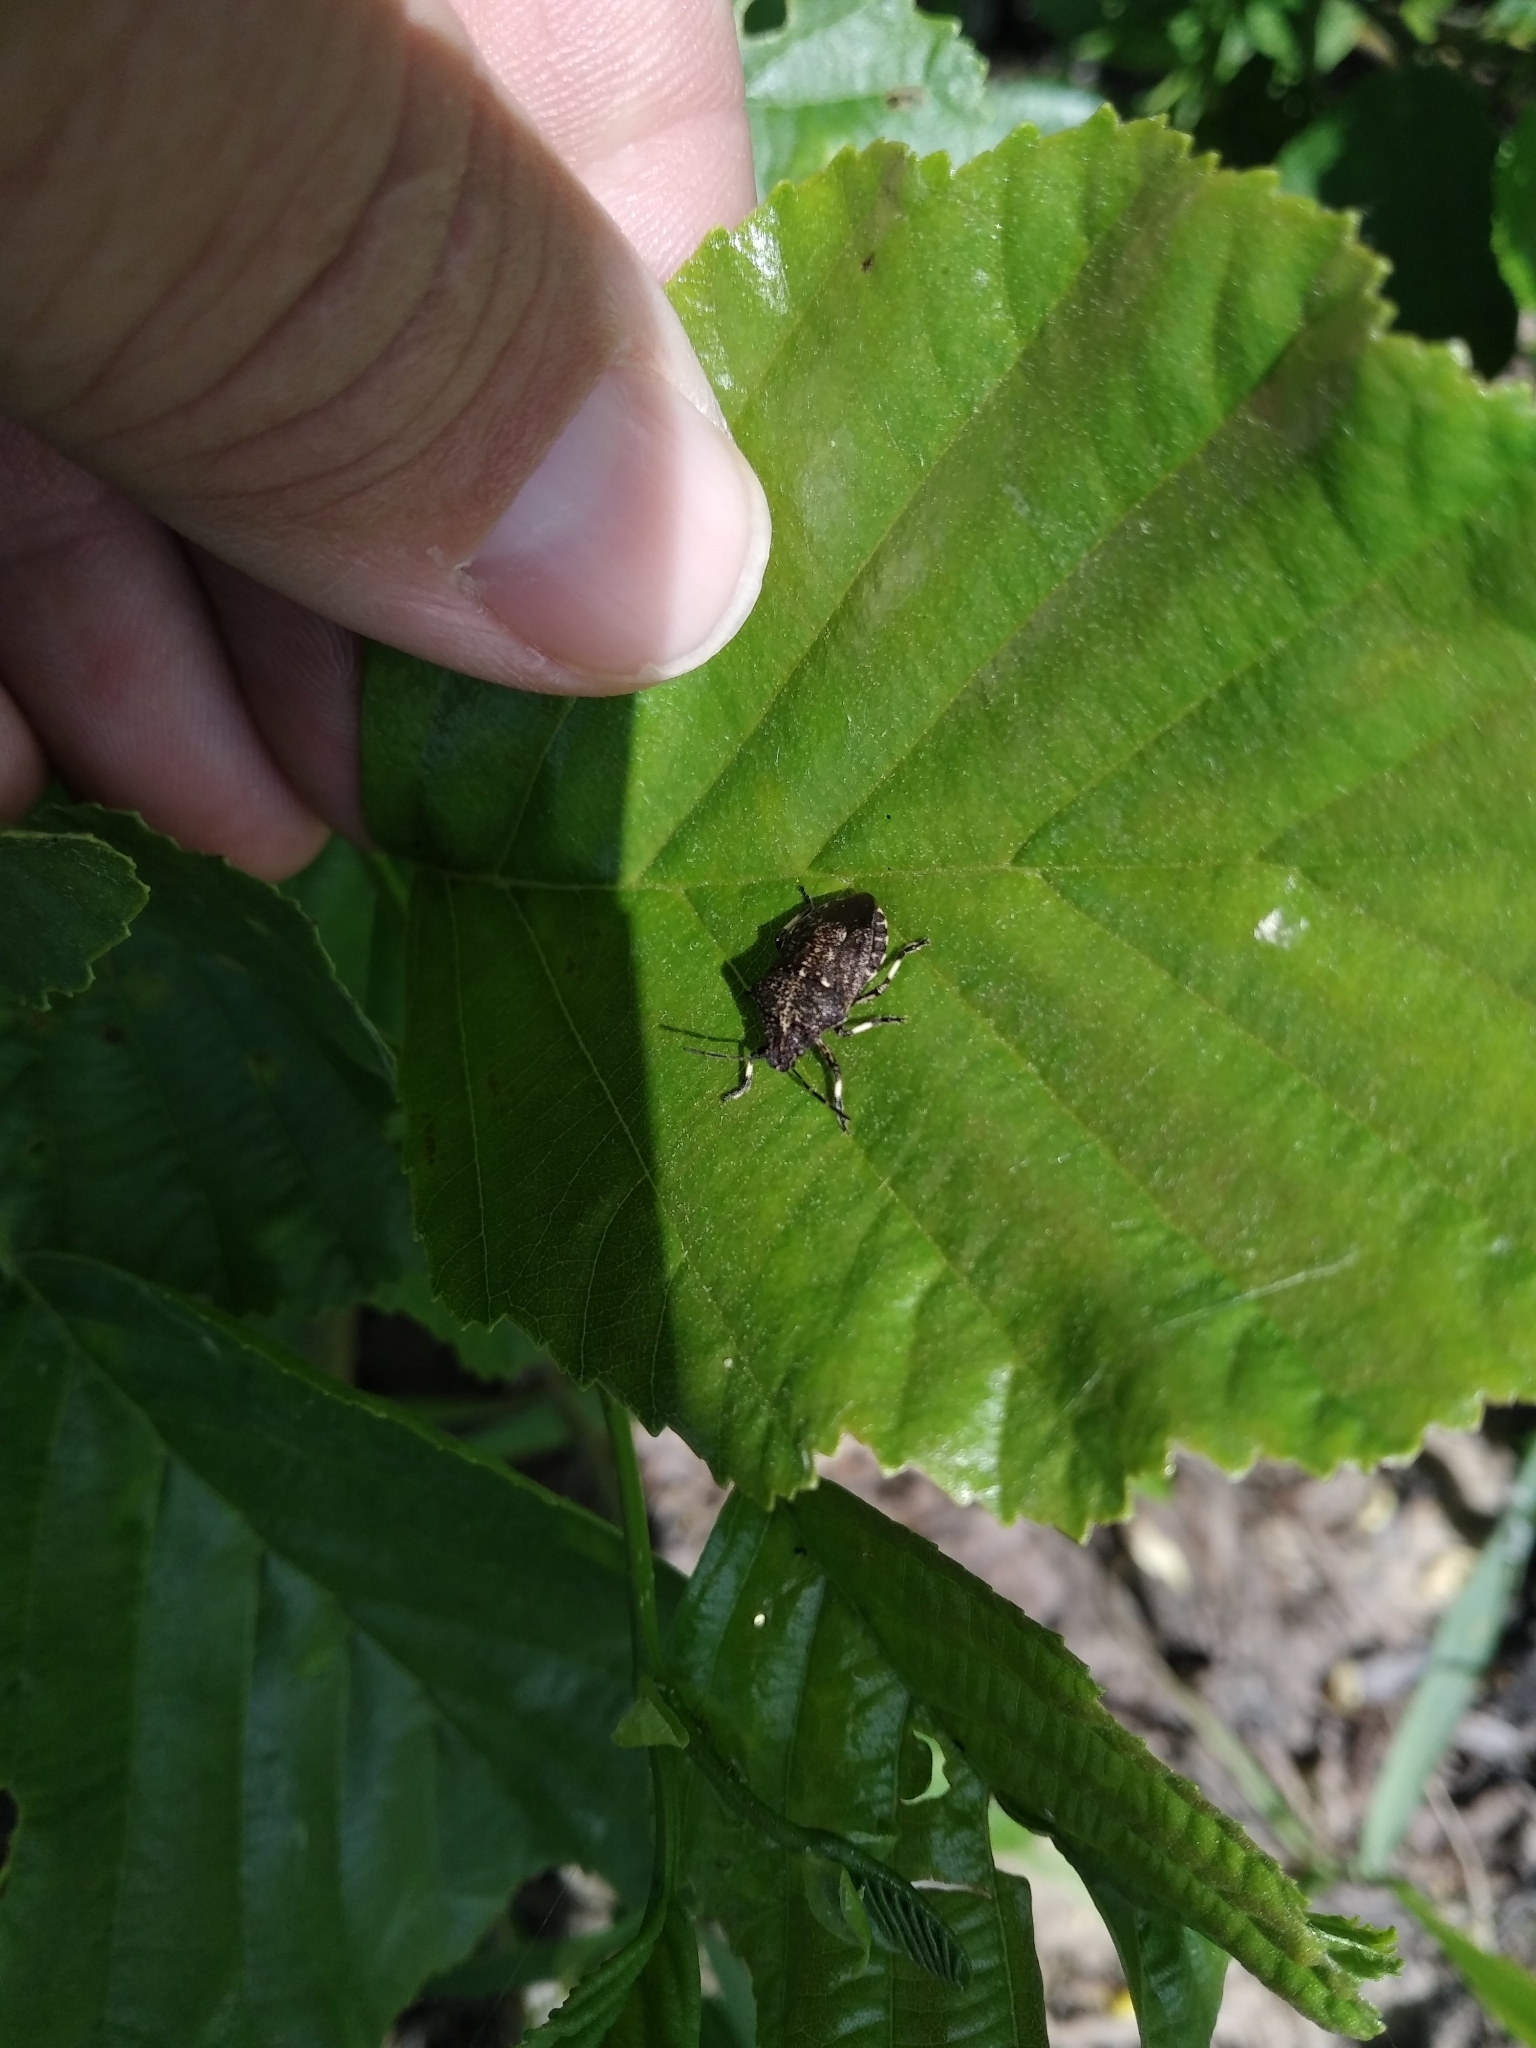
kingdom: Animalia
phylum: Arthropoda
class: Insecta
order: Hemiptera
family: Pentatomidae
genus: Rhacognathus
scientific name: Rhacognathus punctatus
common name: Heather bug
